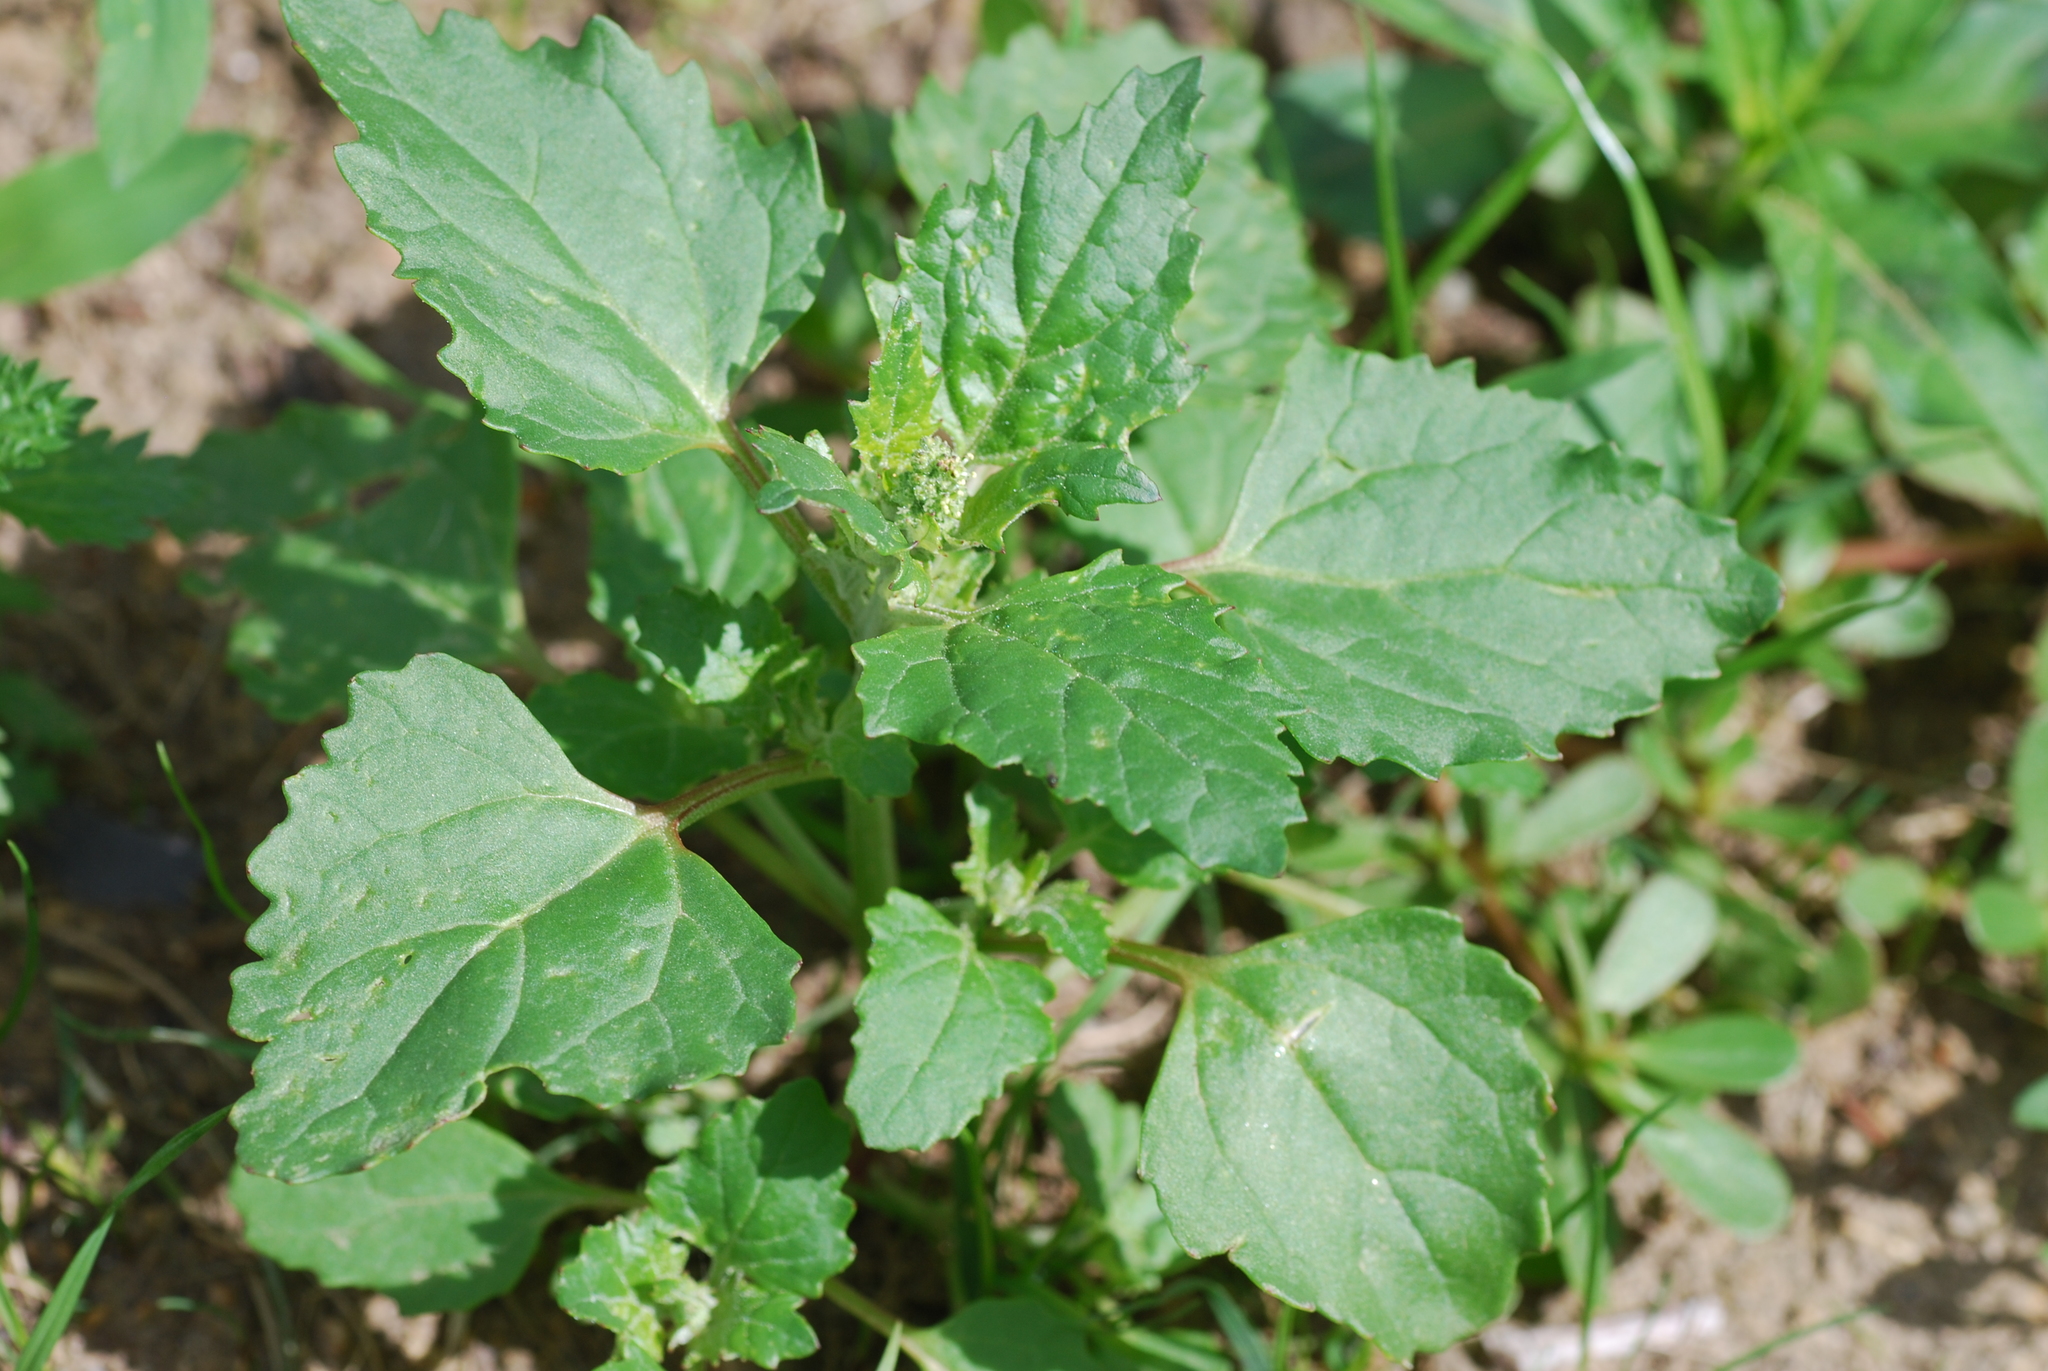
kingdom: Plantae
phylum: Tracheophyta
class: Magnoliopsida
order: Caryophyllales
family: Amaranthaceae
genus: Chenopodiastrum
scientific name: Chenopodiastrum murale
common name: Sowbane
